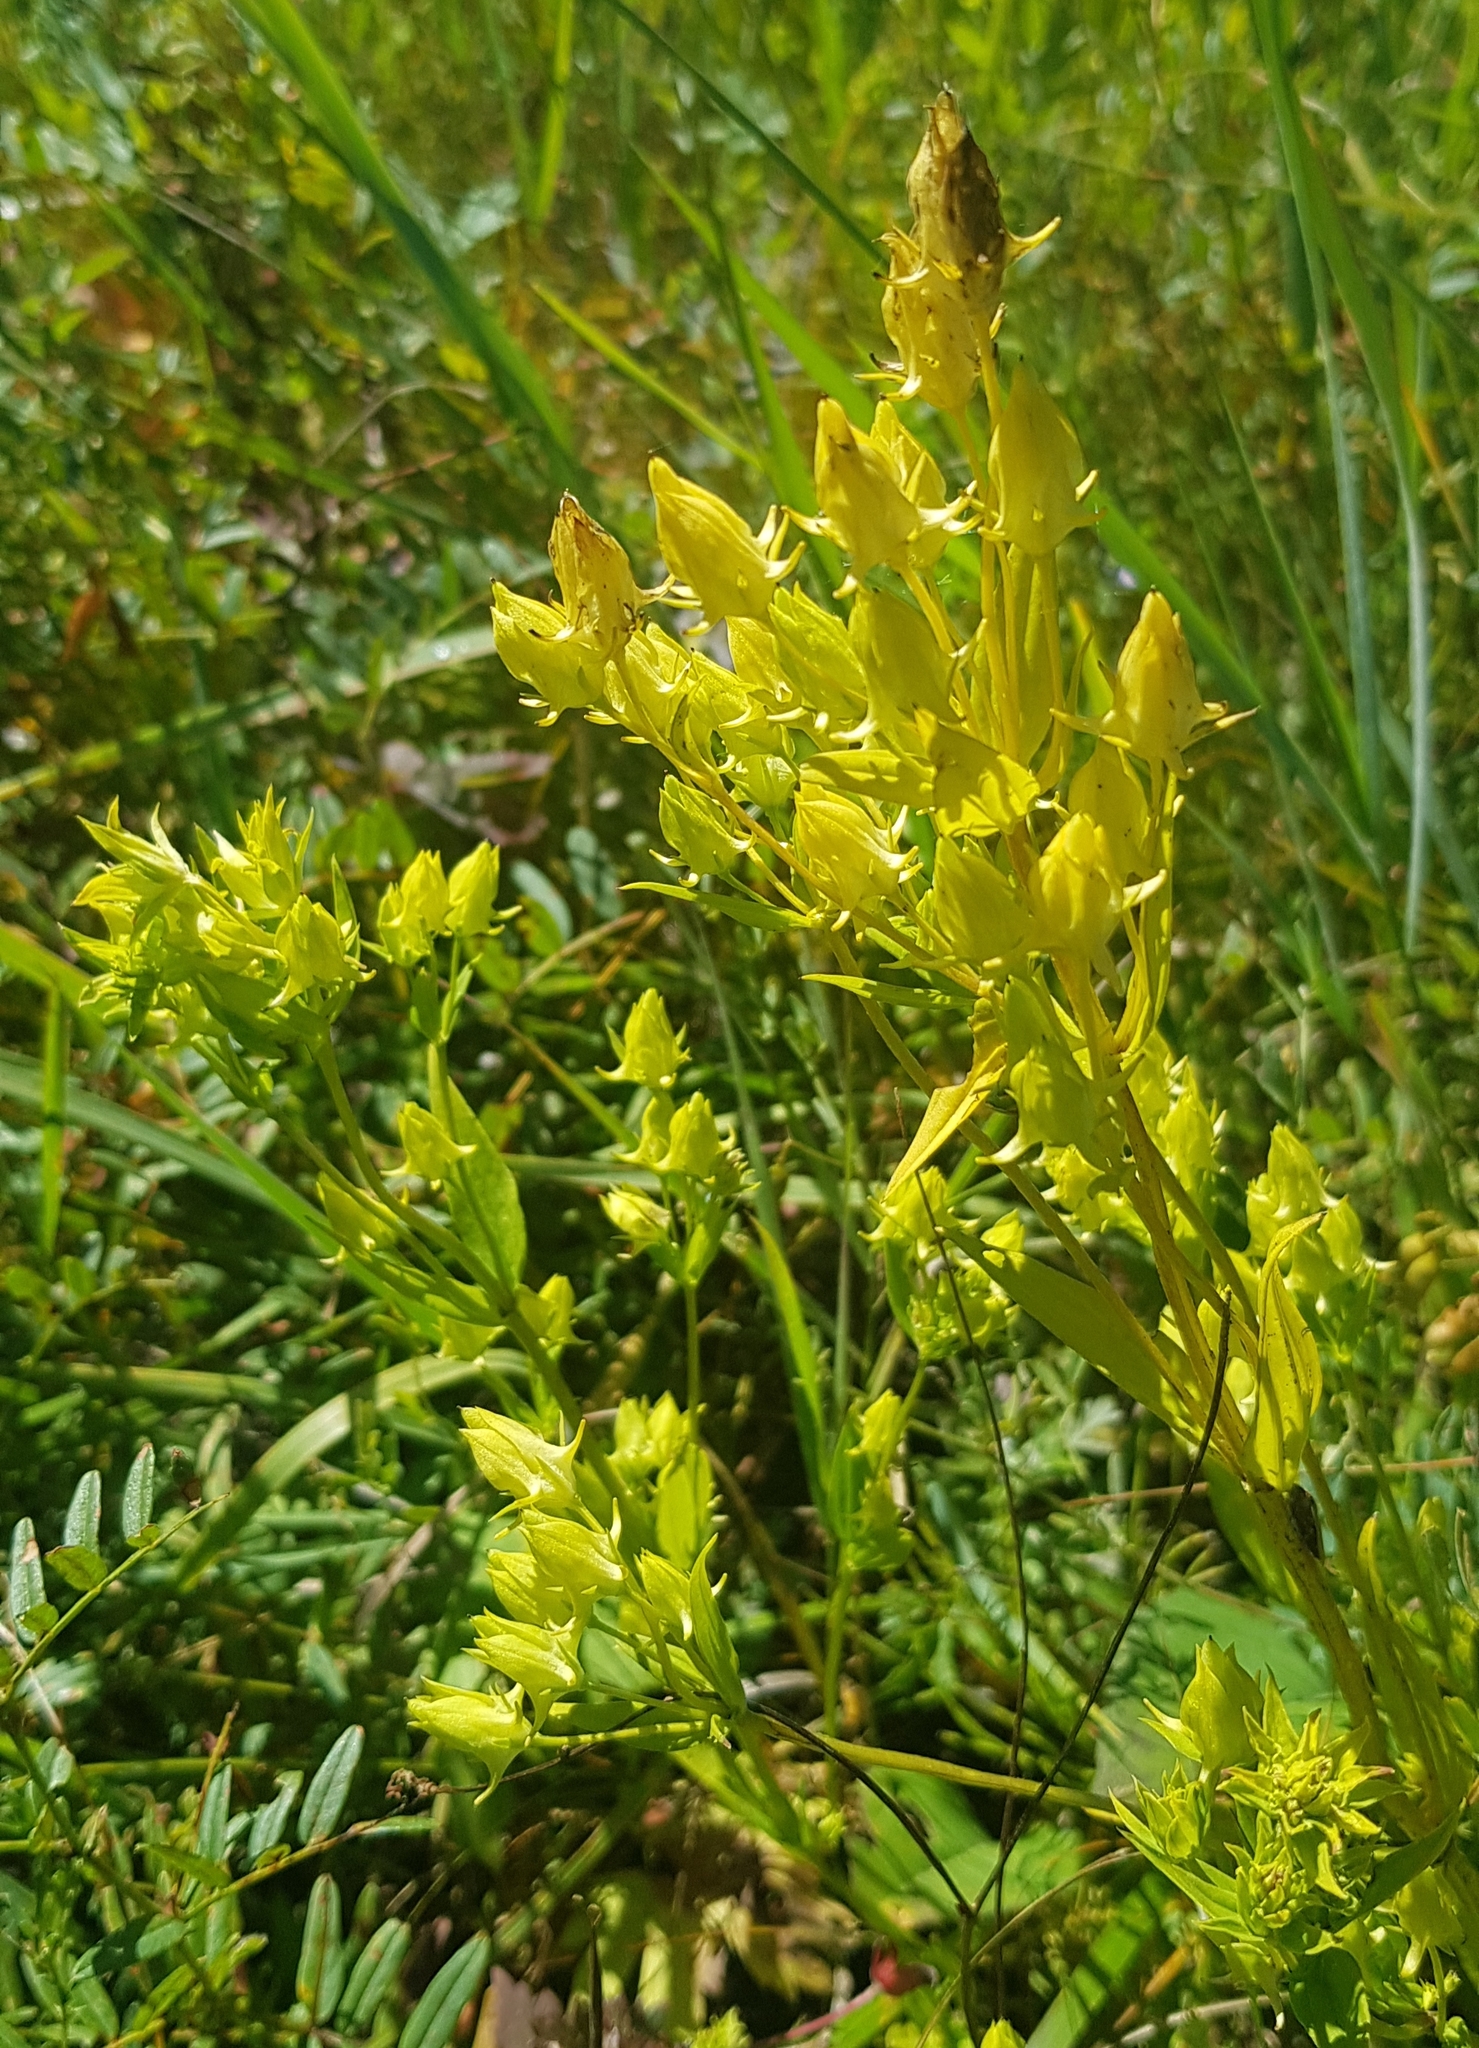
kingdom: Plantae
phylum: Tracheophyta
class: Magnoliopsida
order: Gentianales
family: Gentianaceae
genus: Halenia
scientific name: Halenia corniculata
